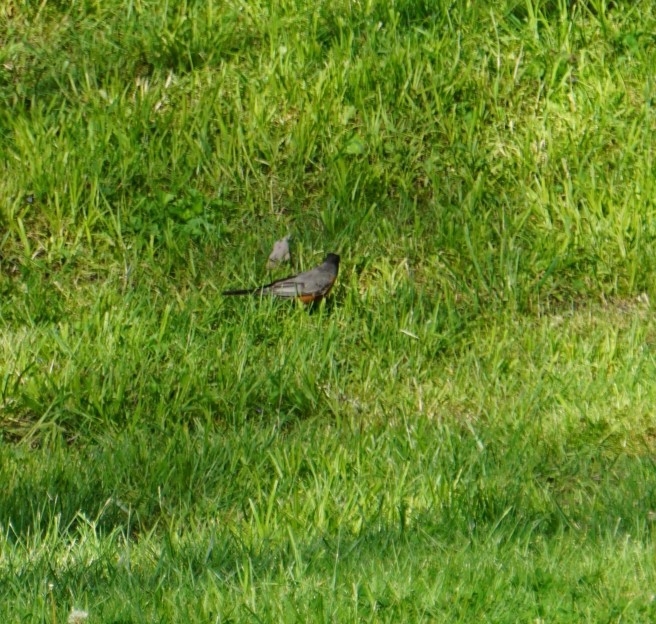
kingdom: Animalia
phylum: Chordata
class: Aves
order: Passeriformes
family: Turdidae
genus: Turdus
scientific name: Turdus migratorius
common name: American robin
